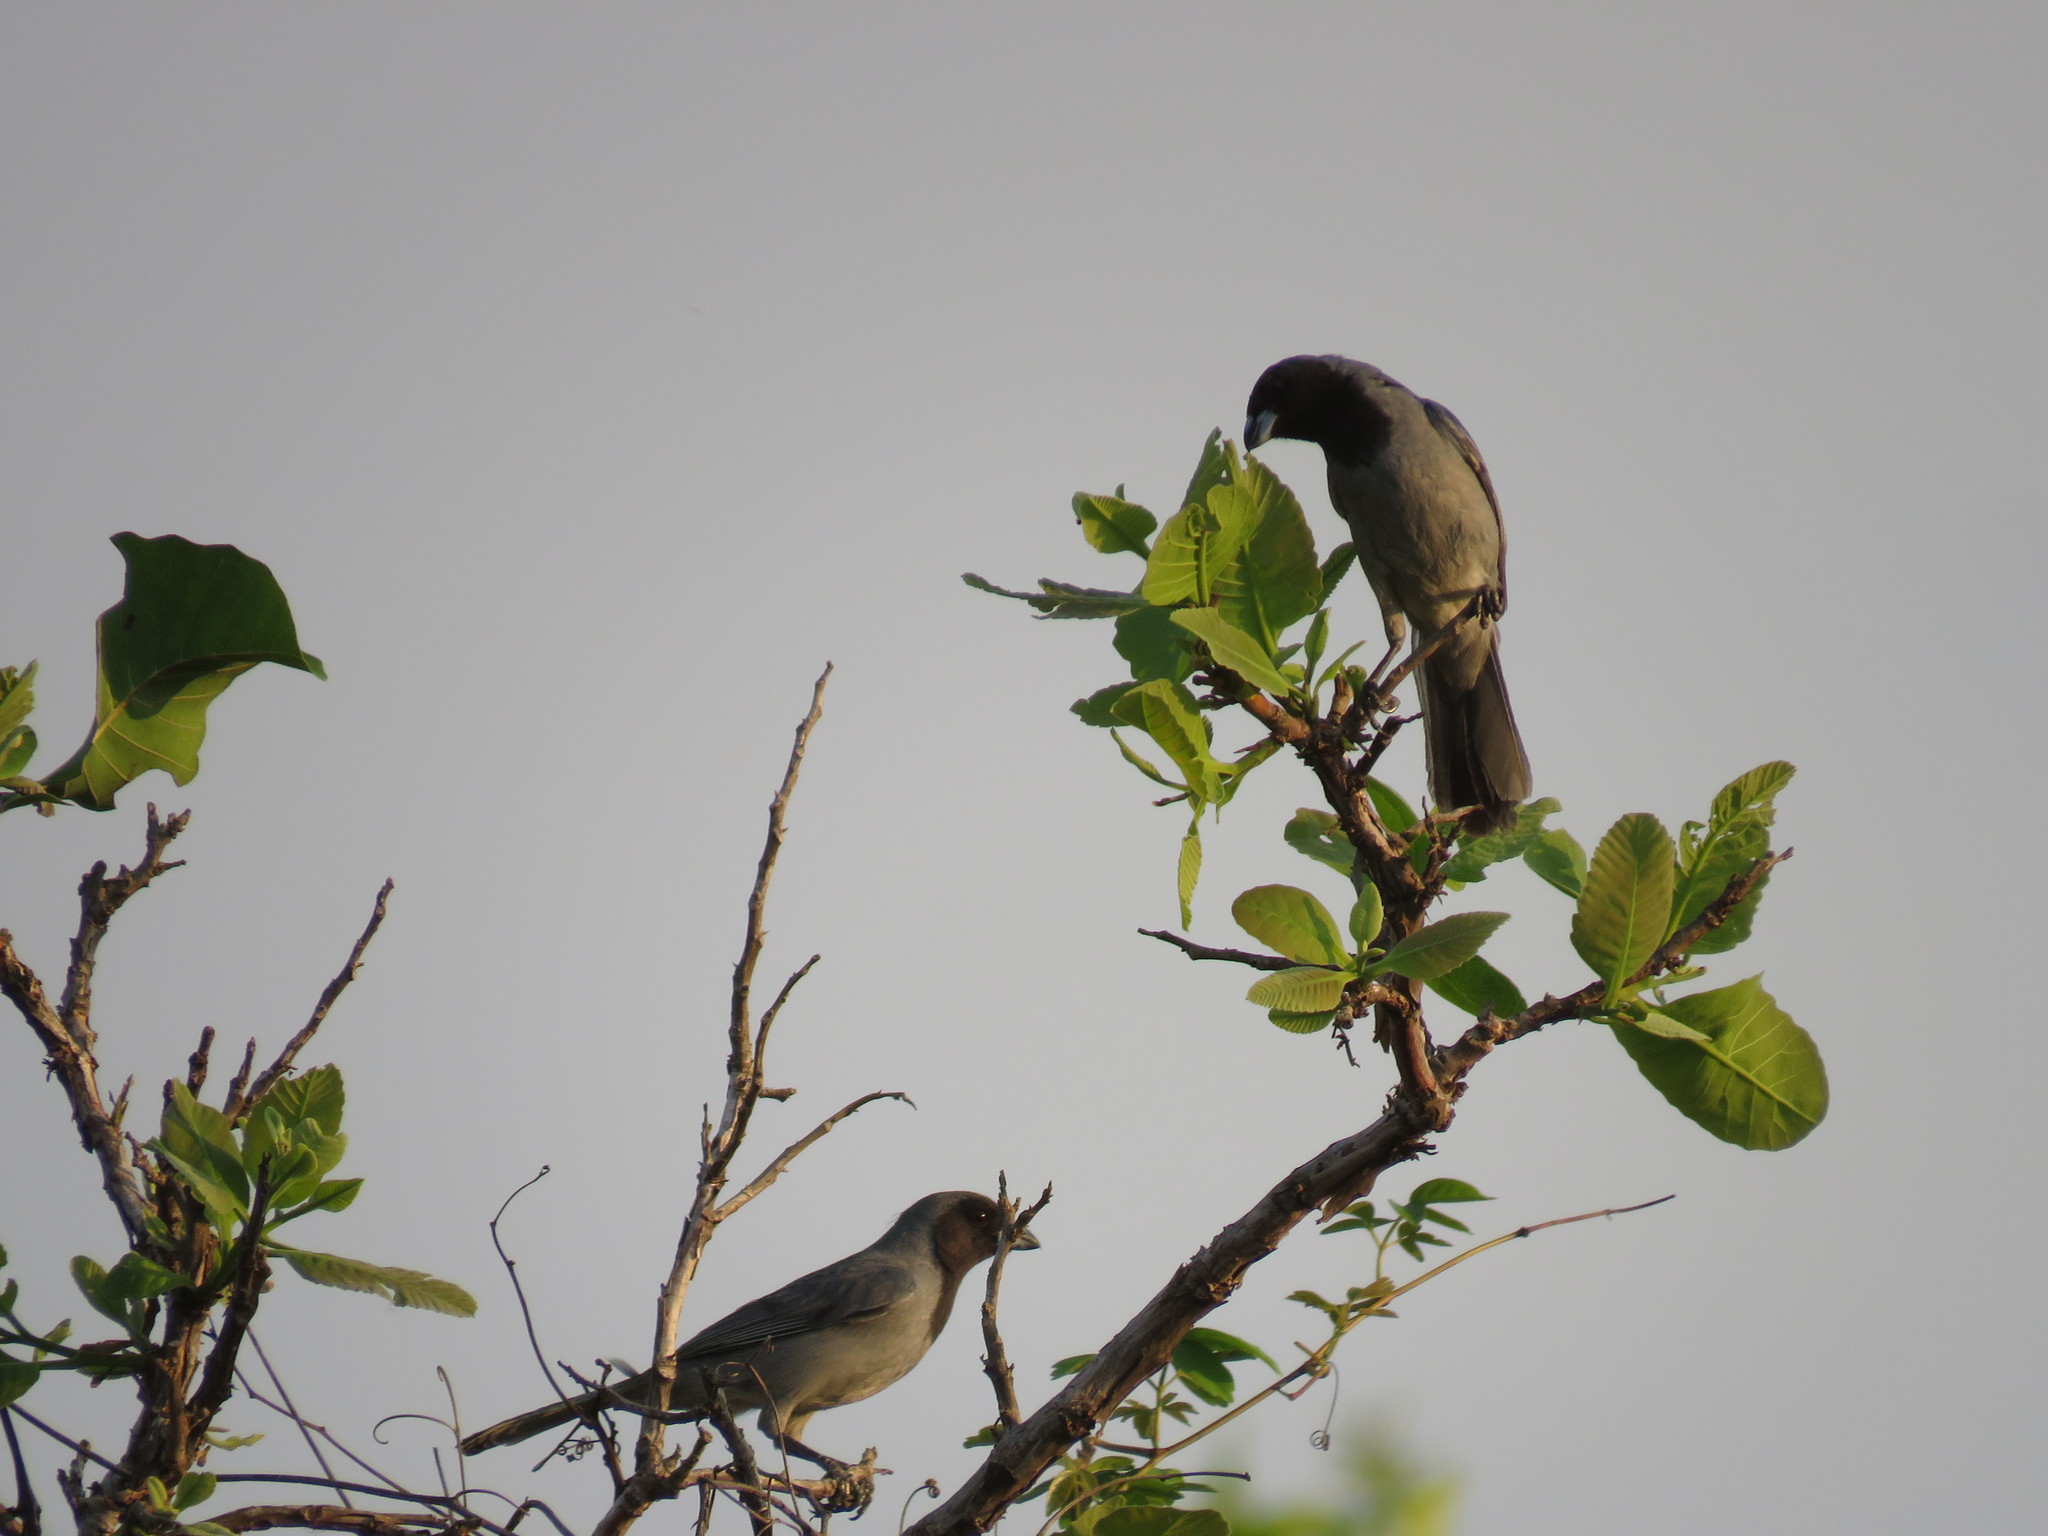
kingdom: Animalia
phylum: Chordata
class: Aves
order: Passeriformes
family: Thraupidae
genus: Schistochlamys
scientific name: Schistochlamys melanopis
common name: Black-faced tanager
